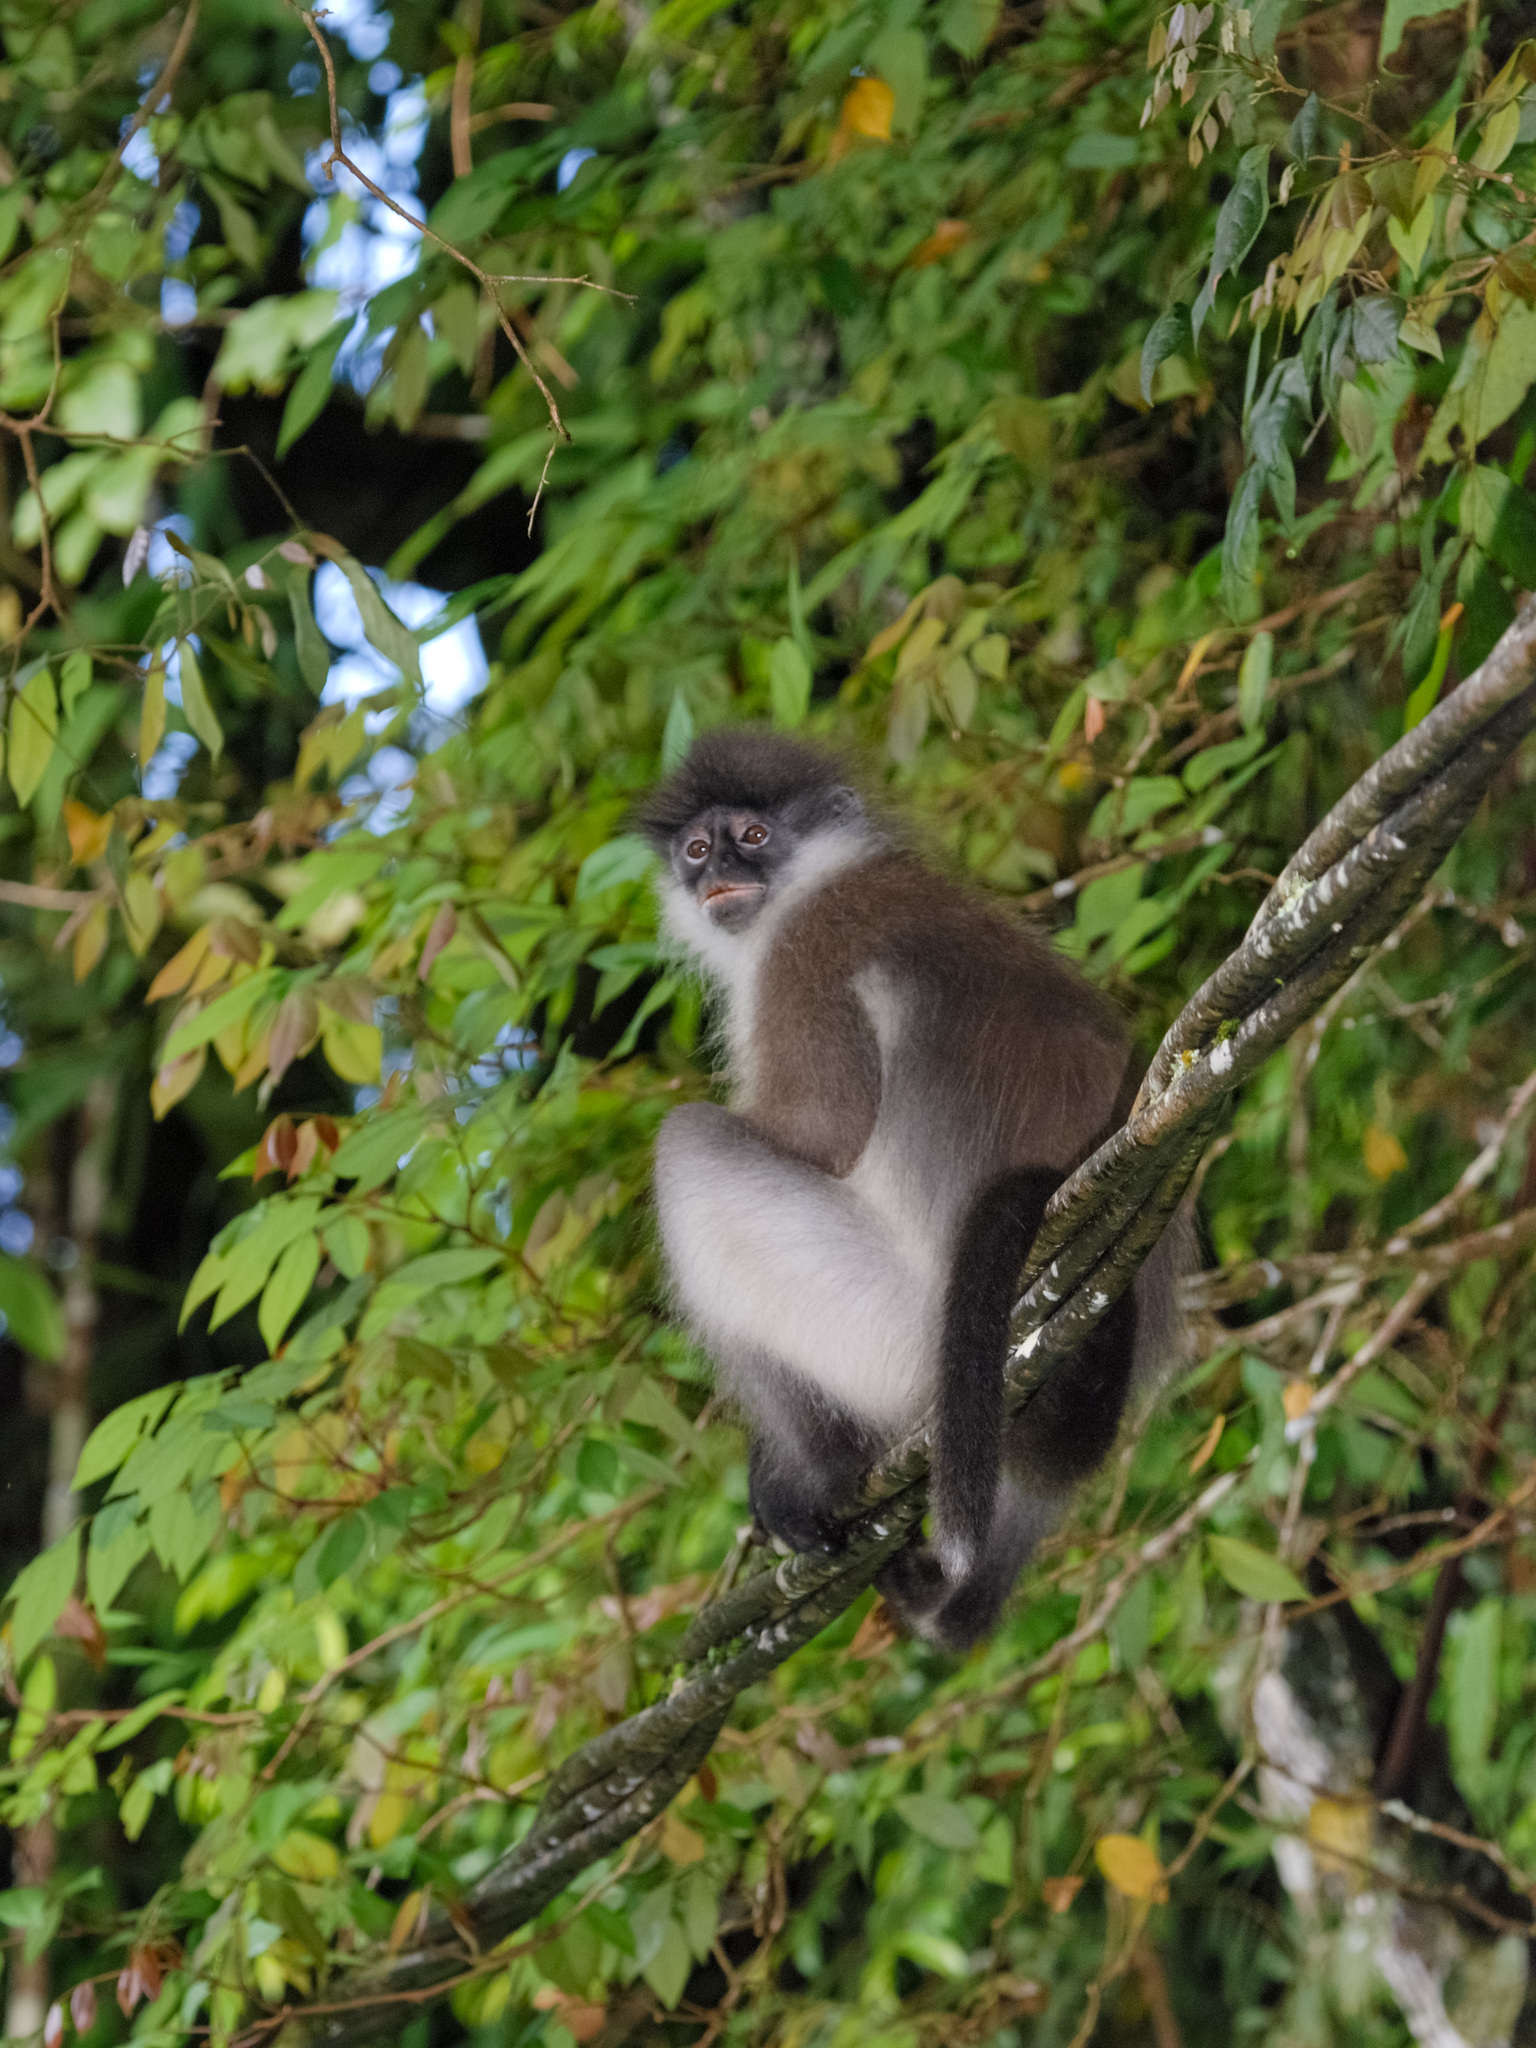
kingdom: Animalia
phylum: Chordata
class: Mammalia
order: Primates
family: Cercopithecidae
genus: Presbytis
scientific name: Presbytis siamensis
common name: White-thighed surili
